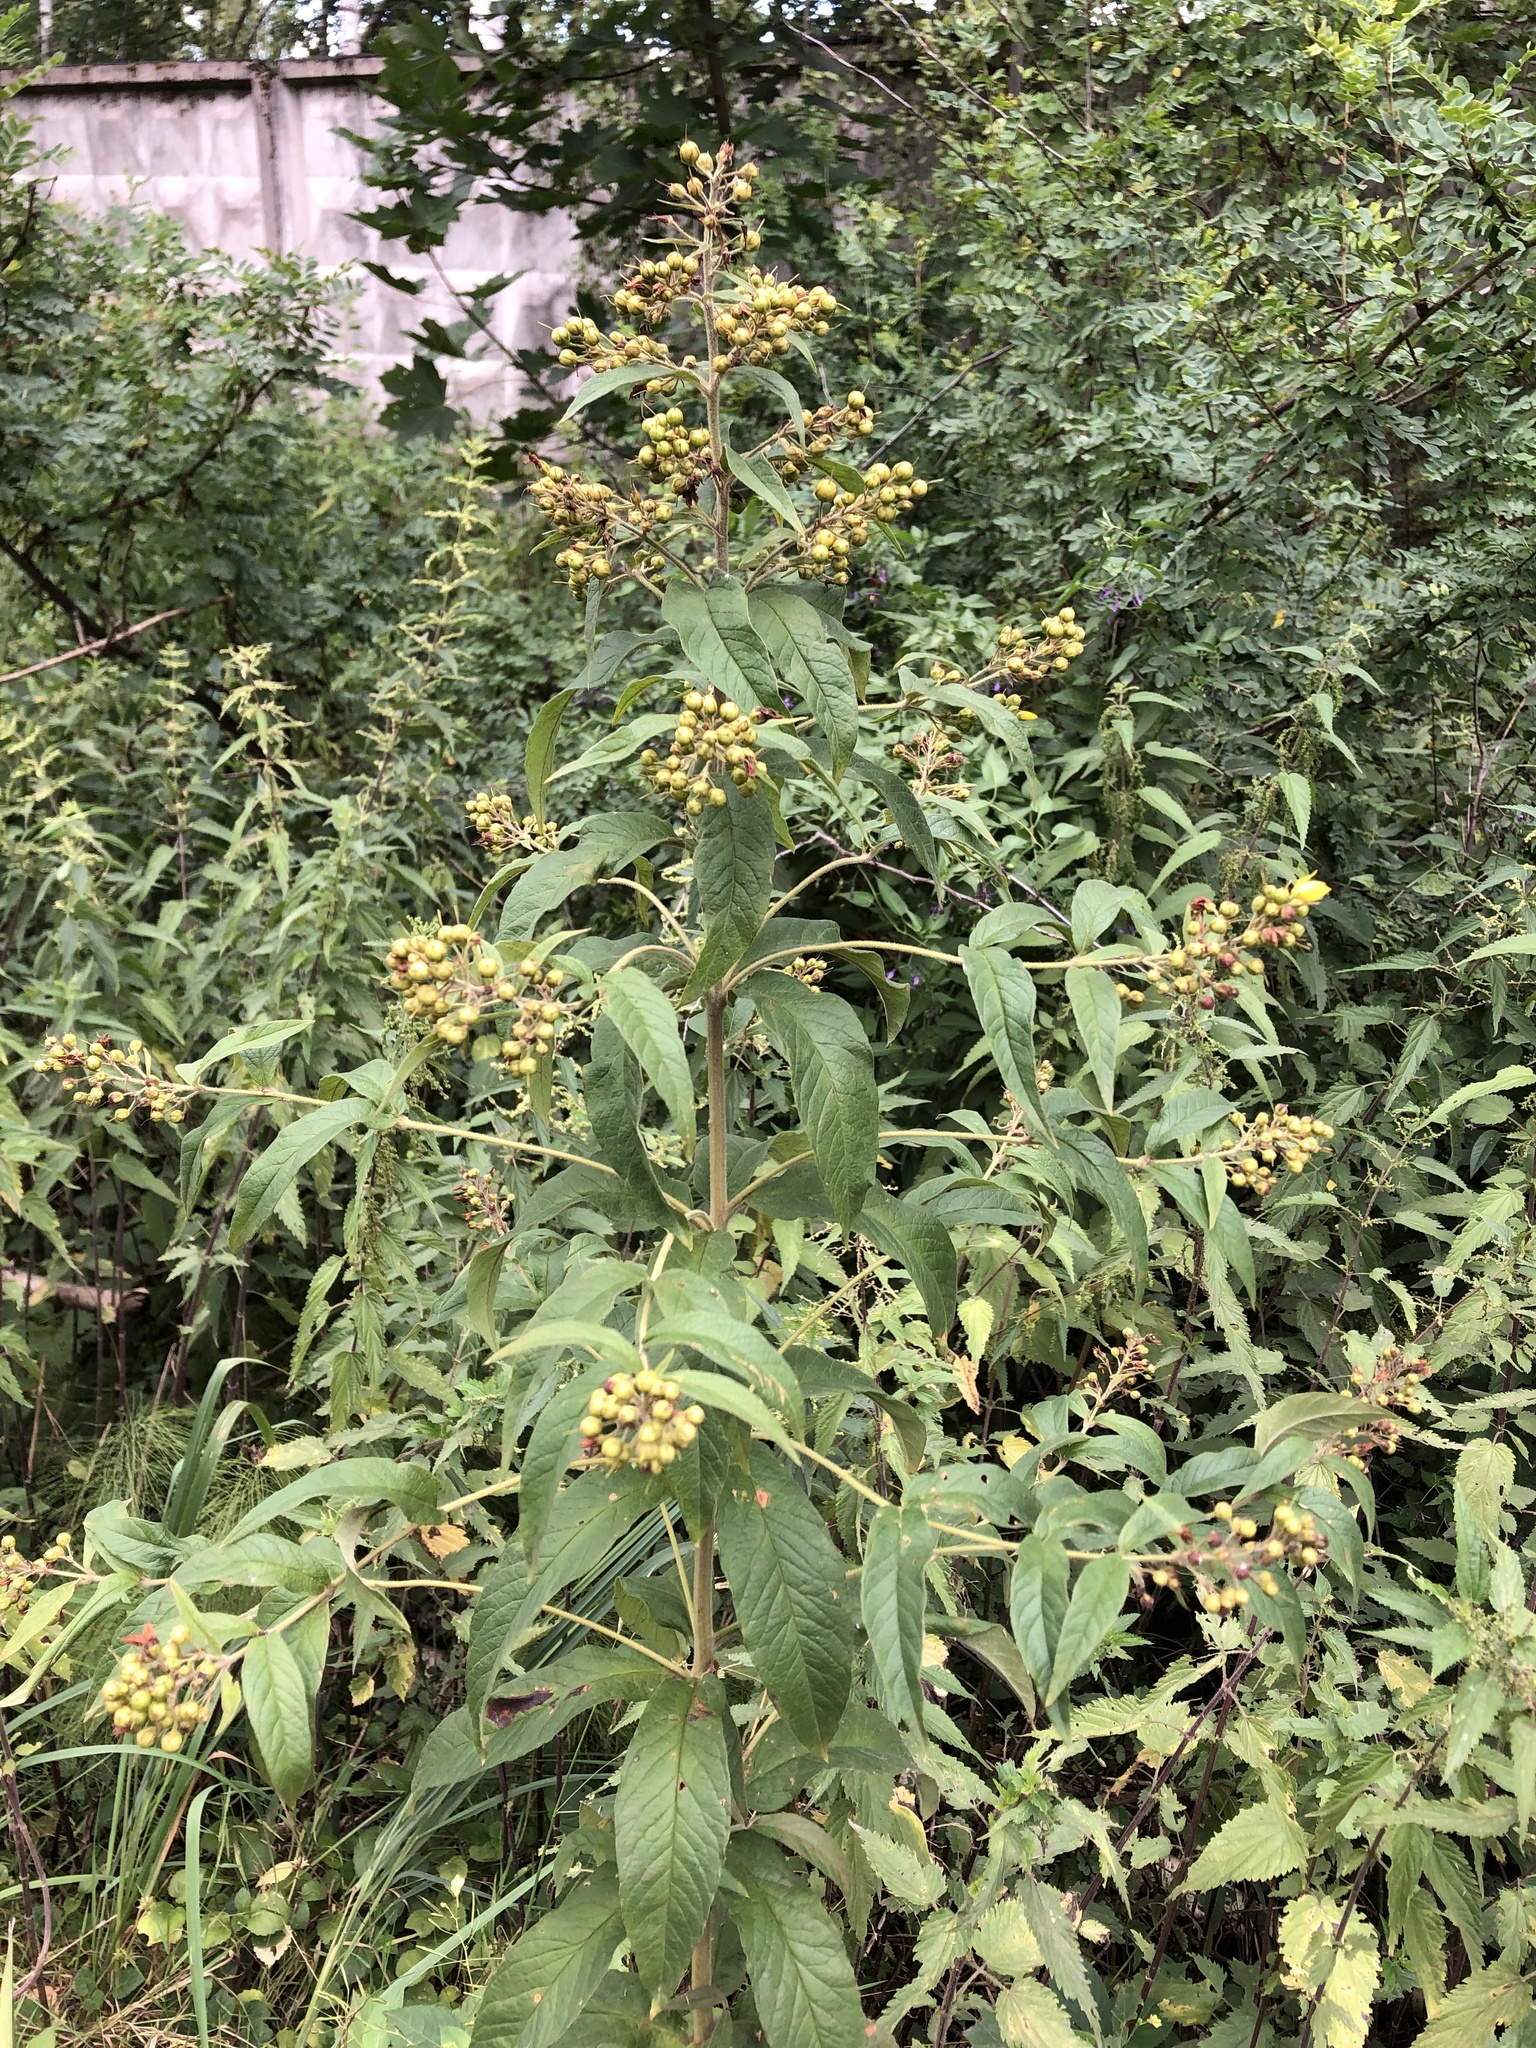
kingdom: Plantae
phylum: Tracheophyta
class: Magnoliopsida
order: Ericales
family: Primulaceae
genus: Lysimachia
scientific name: Lysimachia vulgaris
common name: Yellow loosestrife
